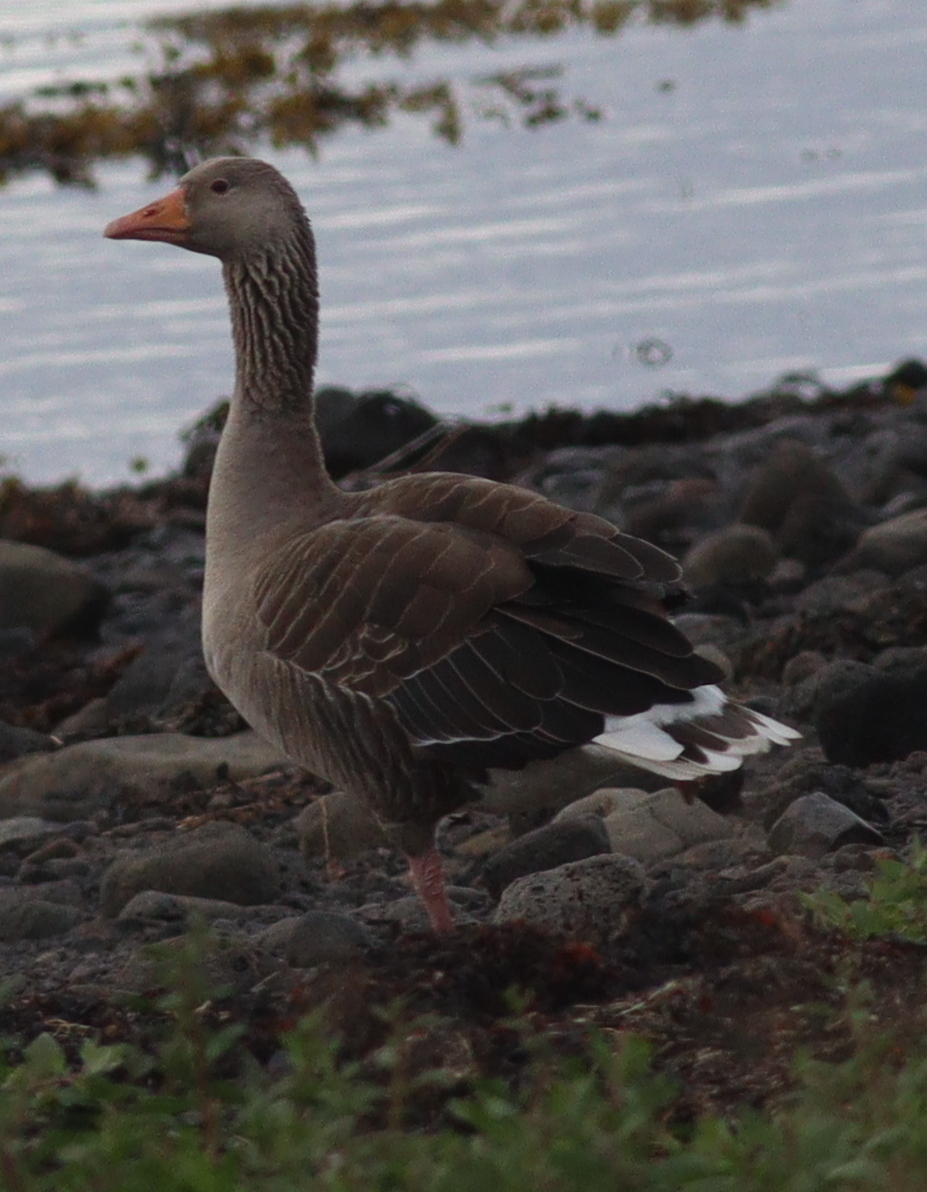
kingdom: Animalia
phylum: Chordata
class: Aves
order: Anseriformes
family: Anatidae
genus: Anser
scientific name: Anser anser
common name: Greylag goose
